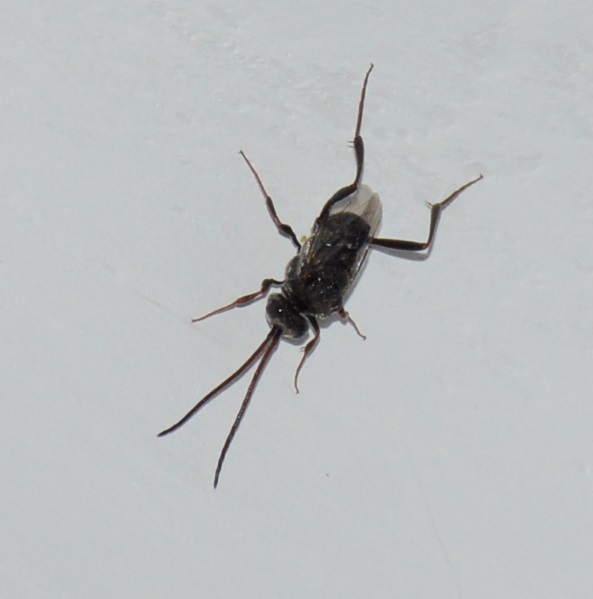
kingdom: Animalia
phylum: Arthropoda
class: Insecta
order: Hymenoptera
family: Evaniidae
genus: Prosevania
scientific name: Prosevania fuscipes
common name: Ensign wasp
